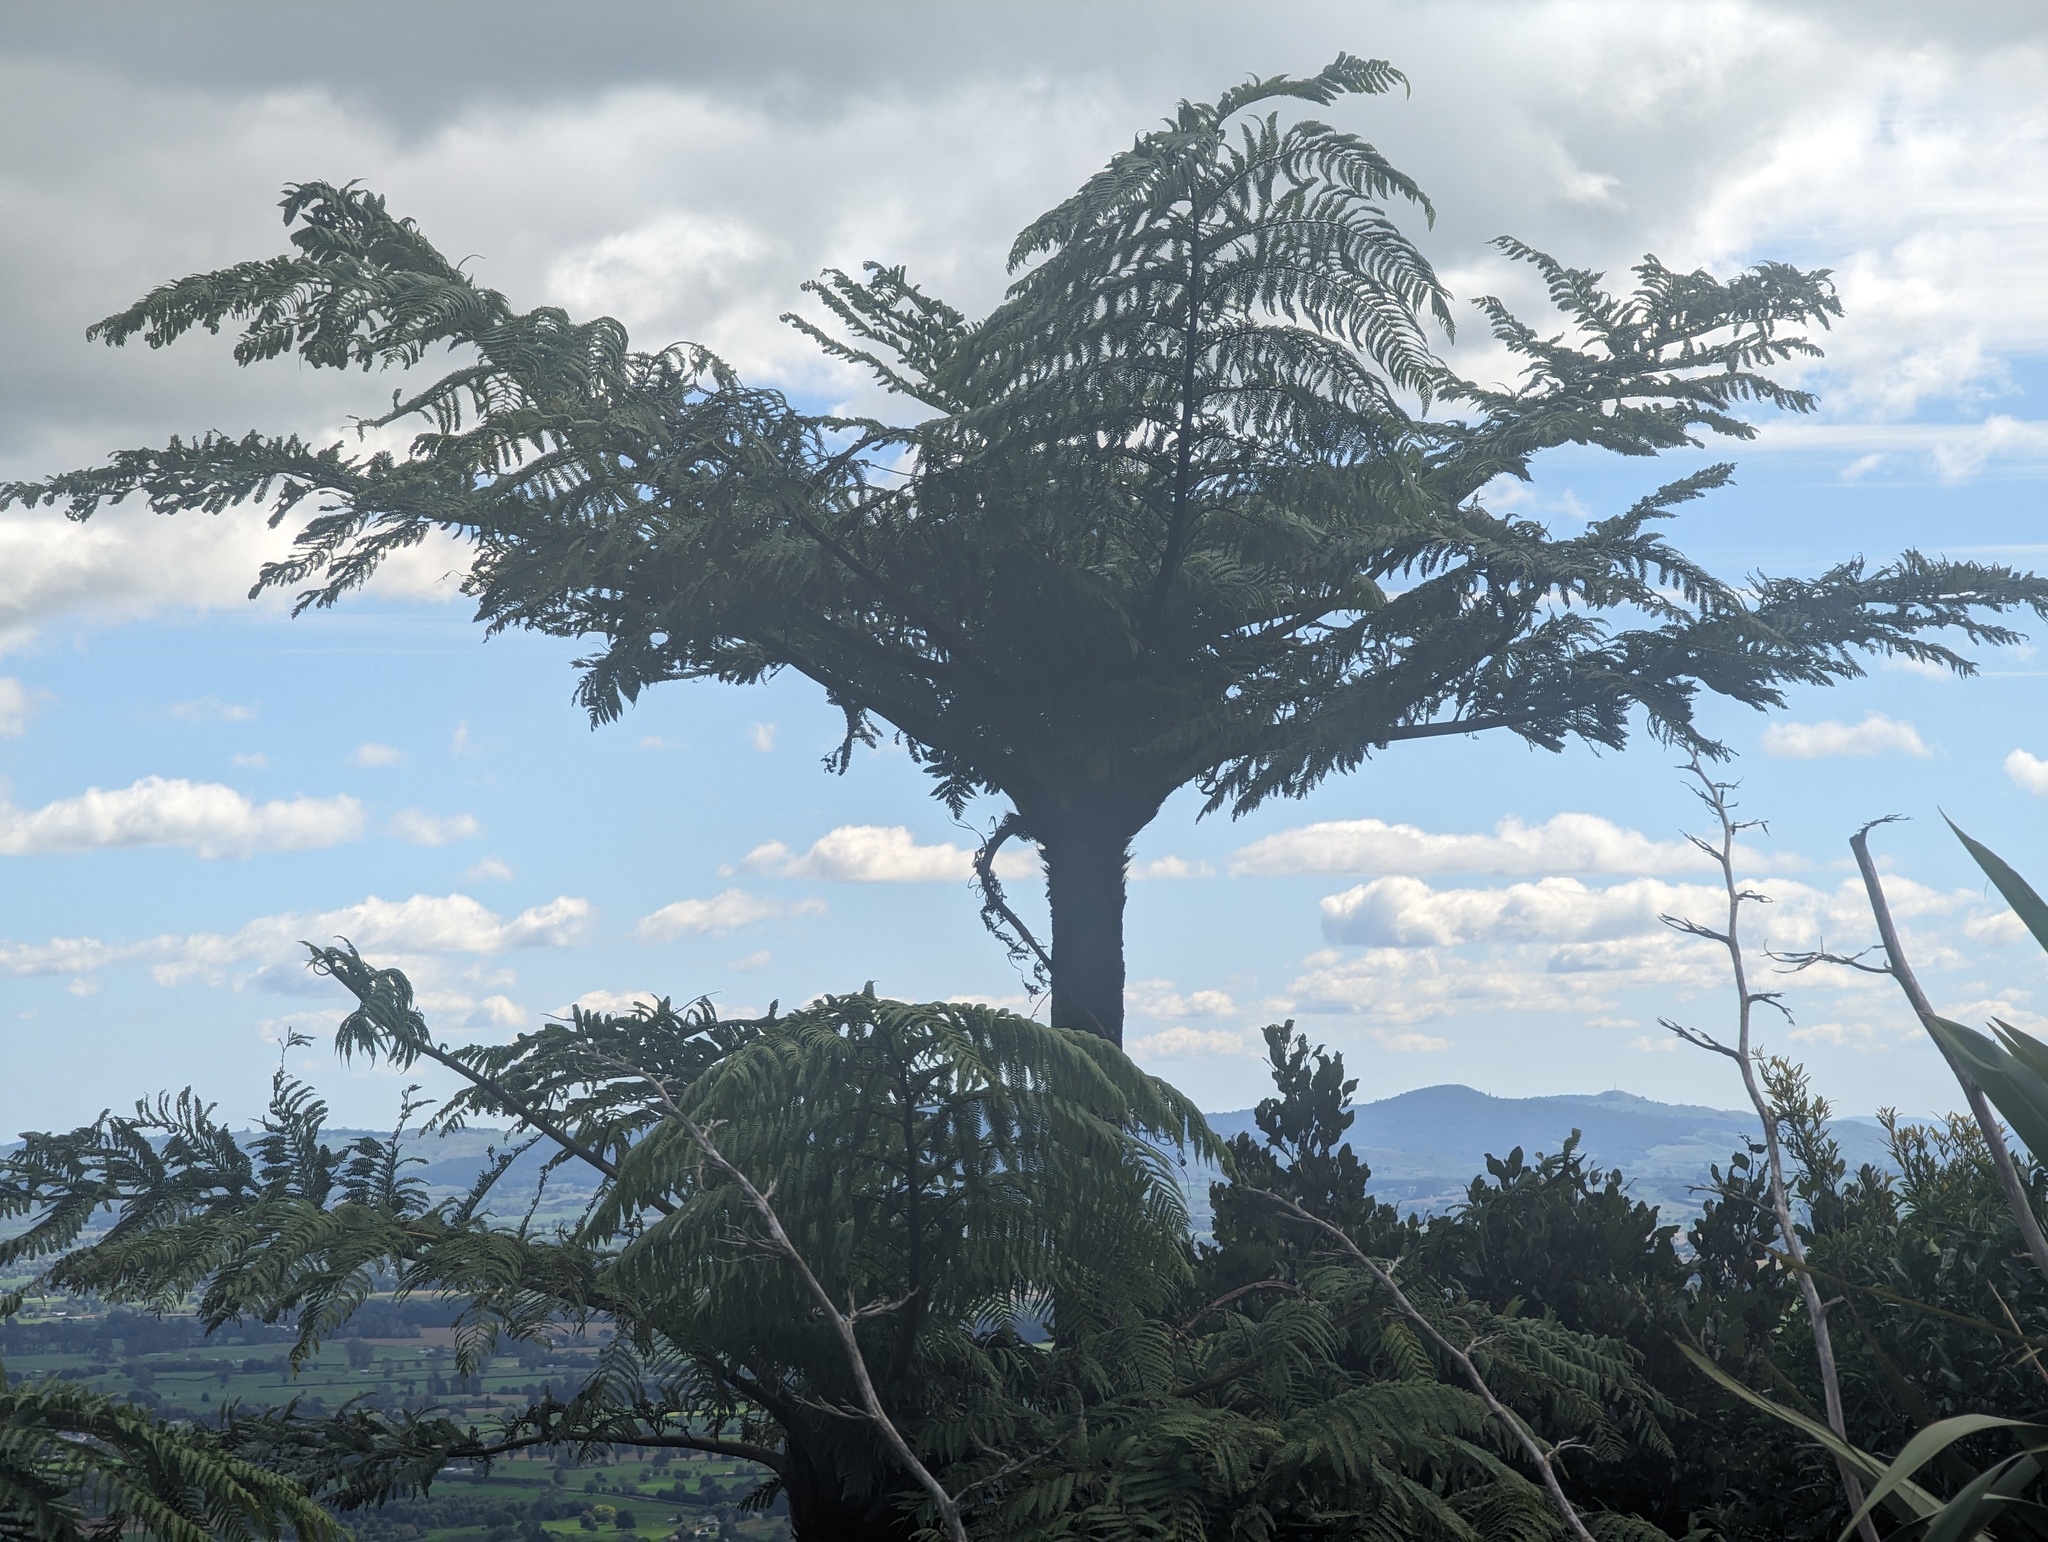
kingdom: Plantae
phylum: Tracheophyta
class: Polypodiopsida
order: Cyatheales
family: Cyatheaceae
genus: Sphaeropteris
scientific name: Sphaeropteris medullaris
